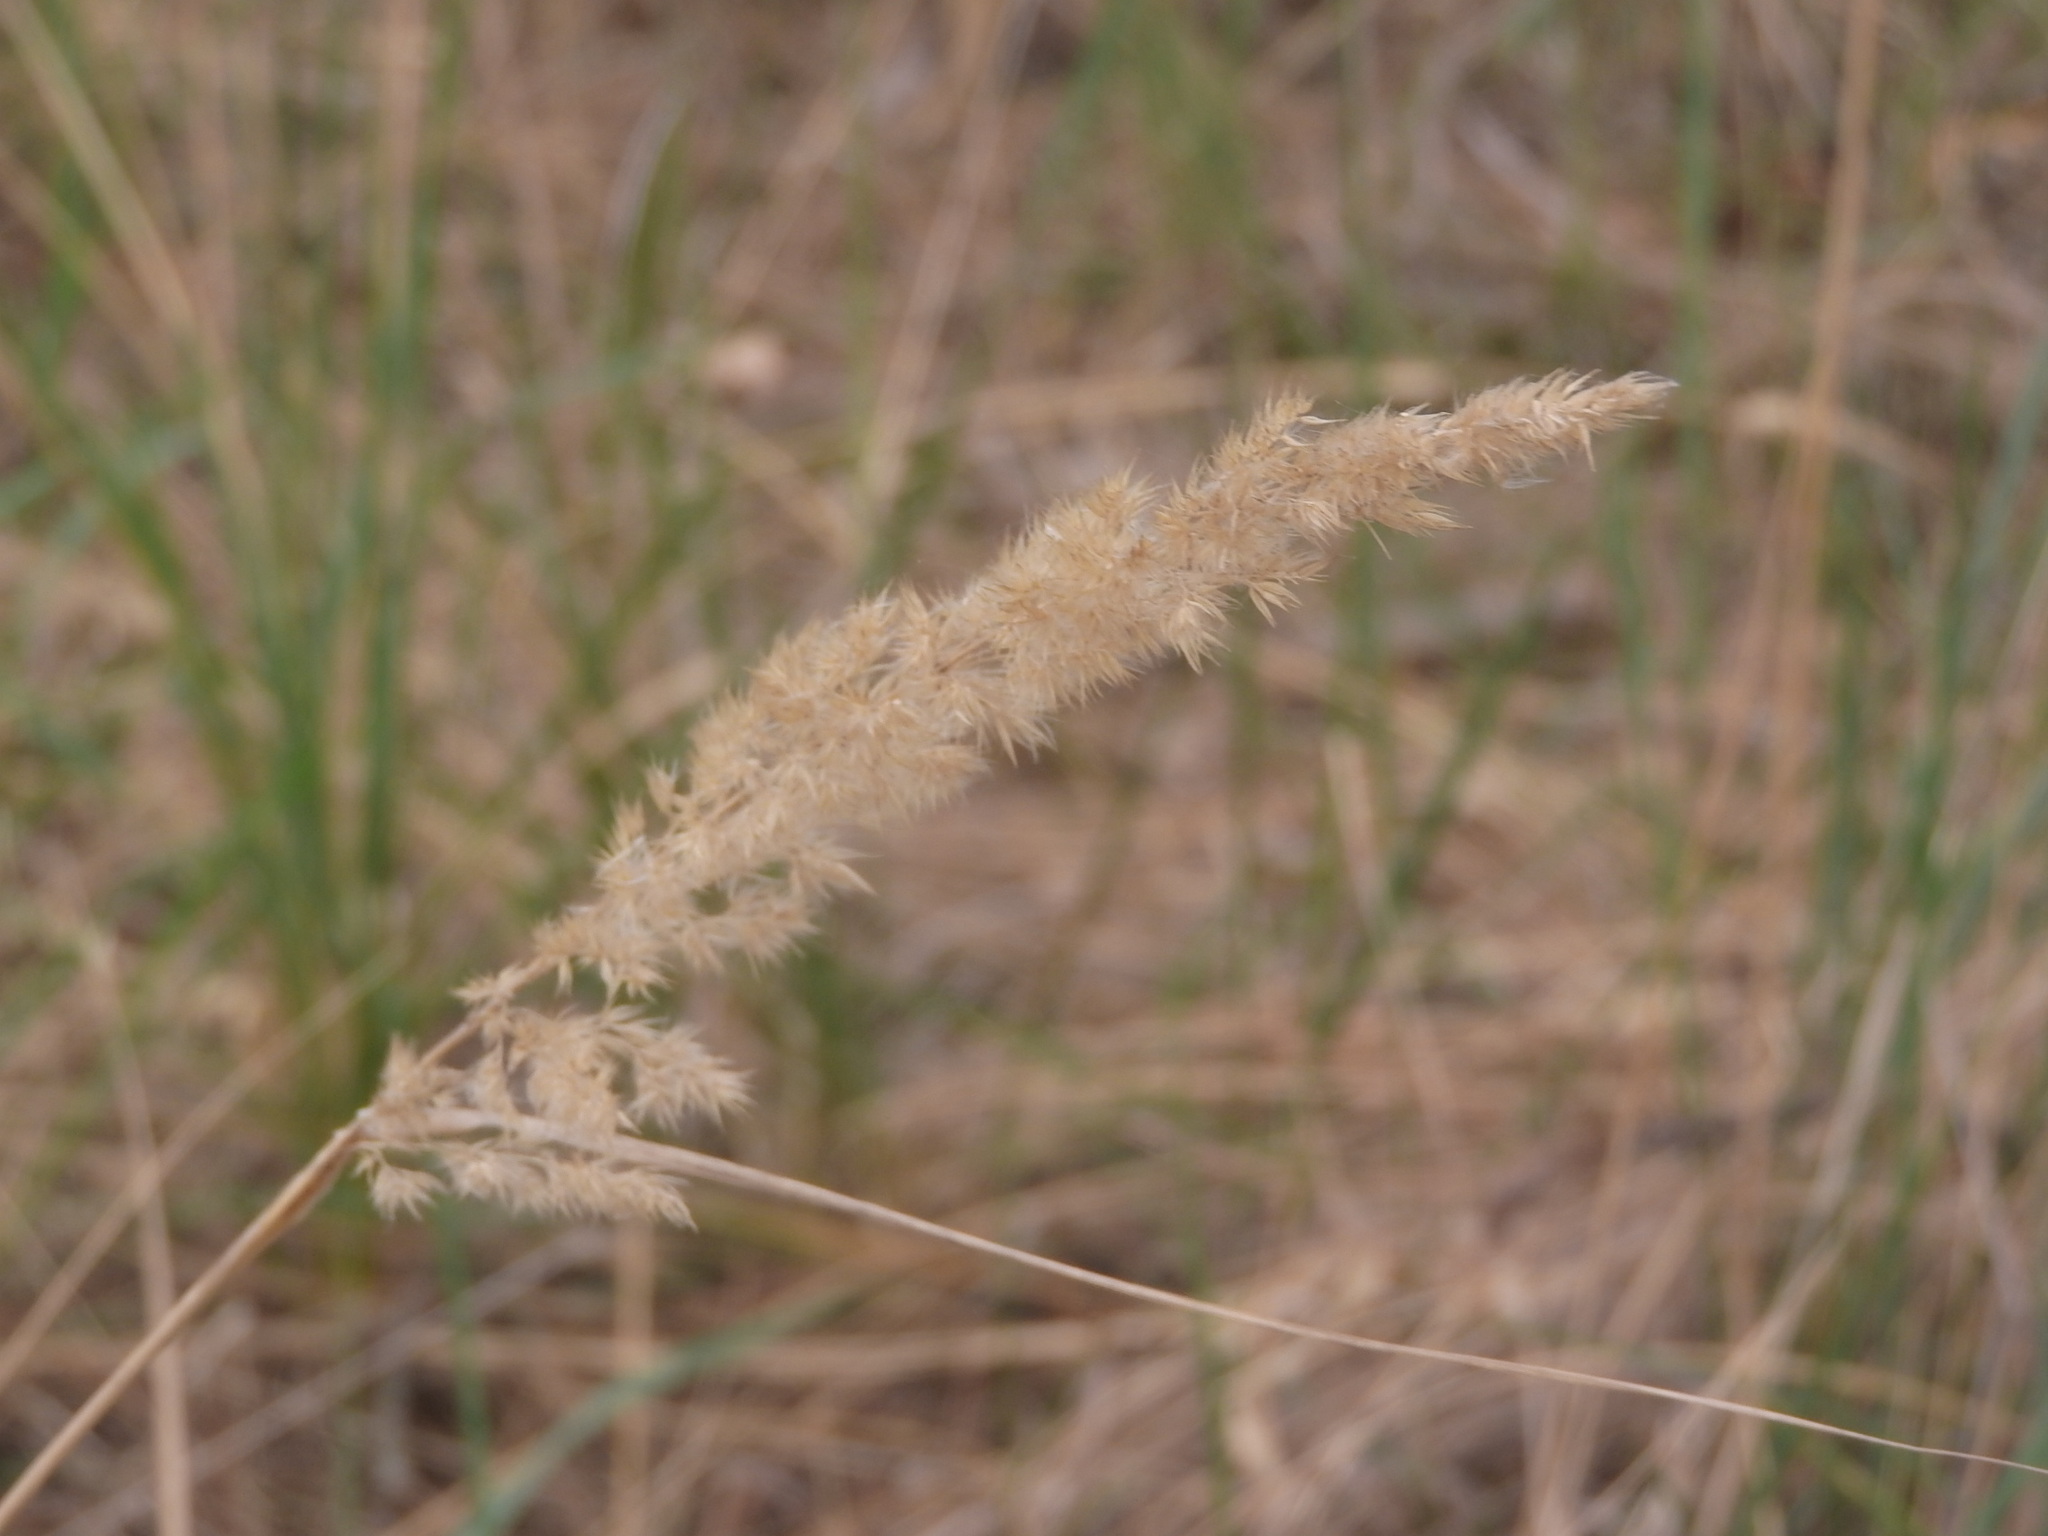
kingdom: Plantae
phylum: Tracheophyta
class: Liliopsida
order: Poales
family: Poaceae
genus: Calamagrostis
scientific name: Calamagrostis epigejos
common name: Wood small-reed
